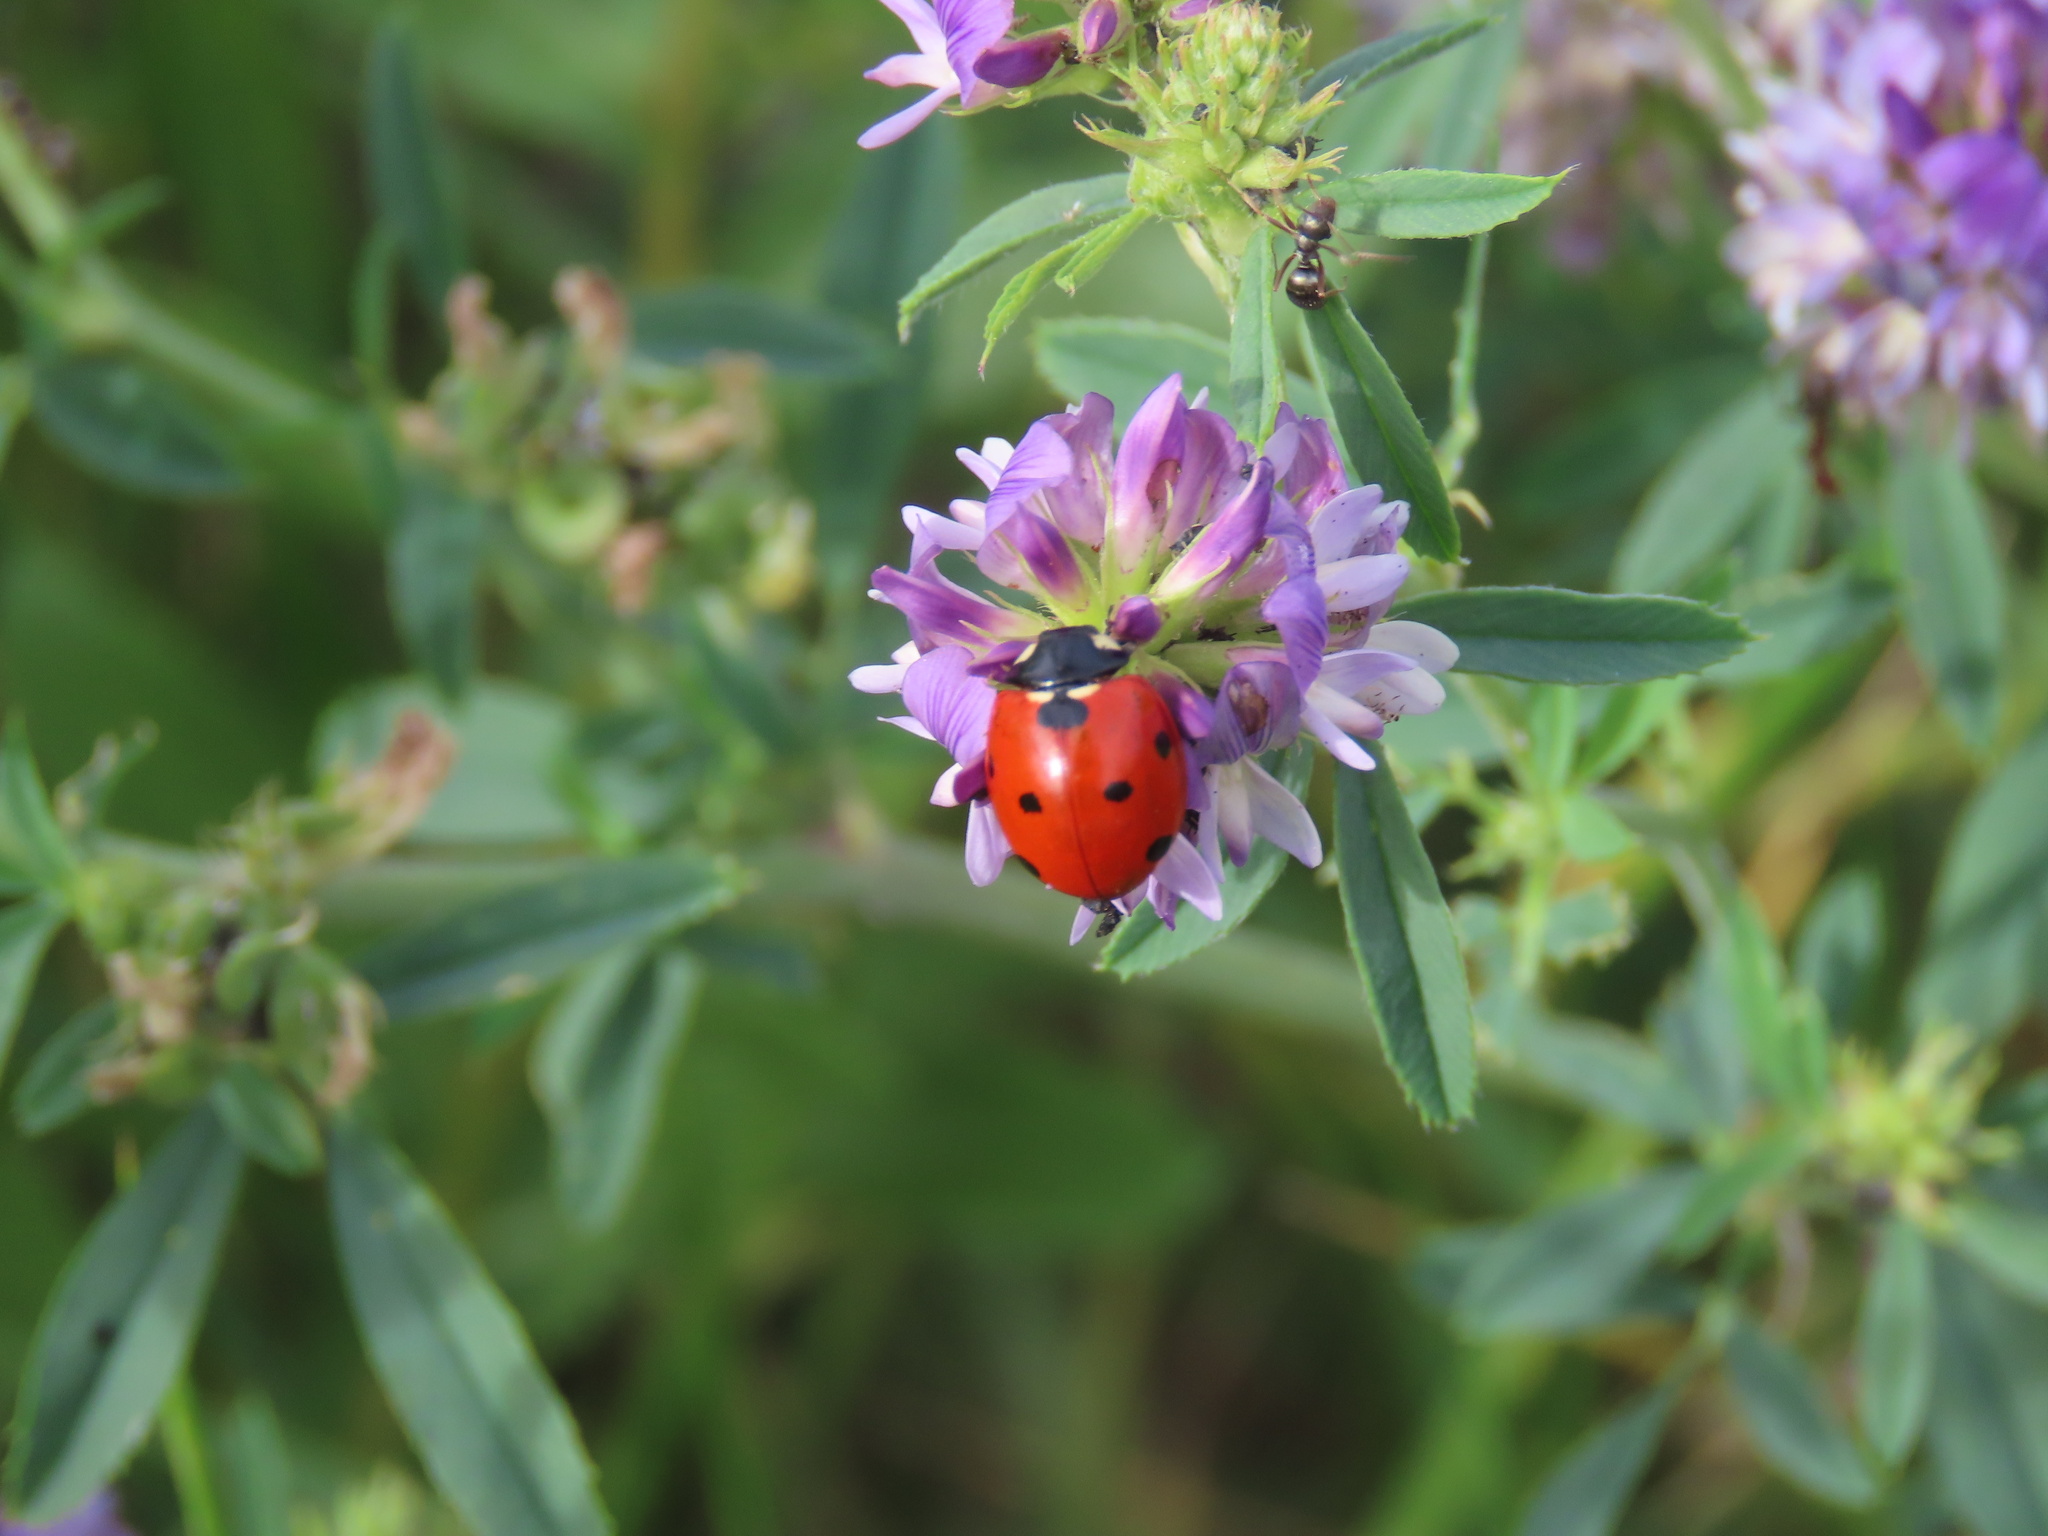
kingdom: Animalia
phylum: Arthropoda
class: Insecta
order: Coleoptera
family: Coccinellidae
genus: Coccinella
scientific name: Coccinella septempunctata
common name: Sevenspotted lady beetle
